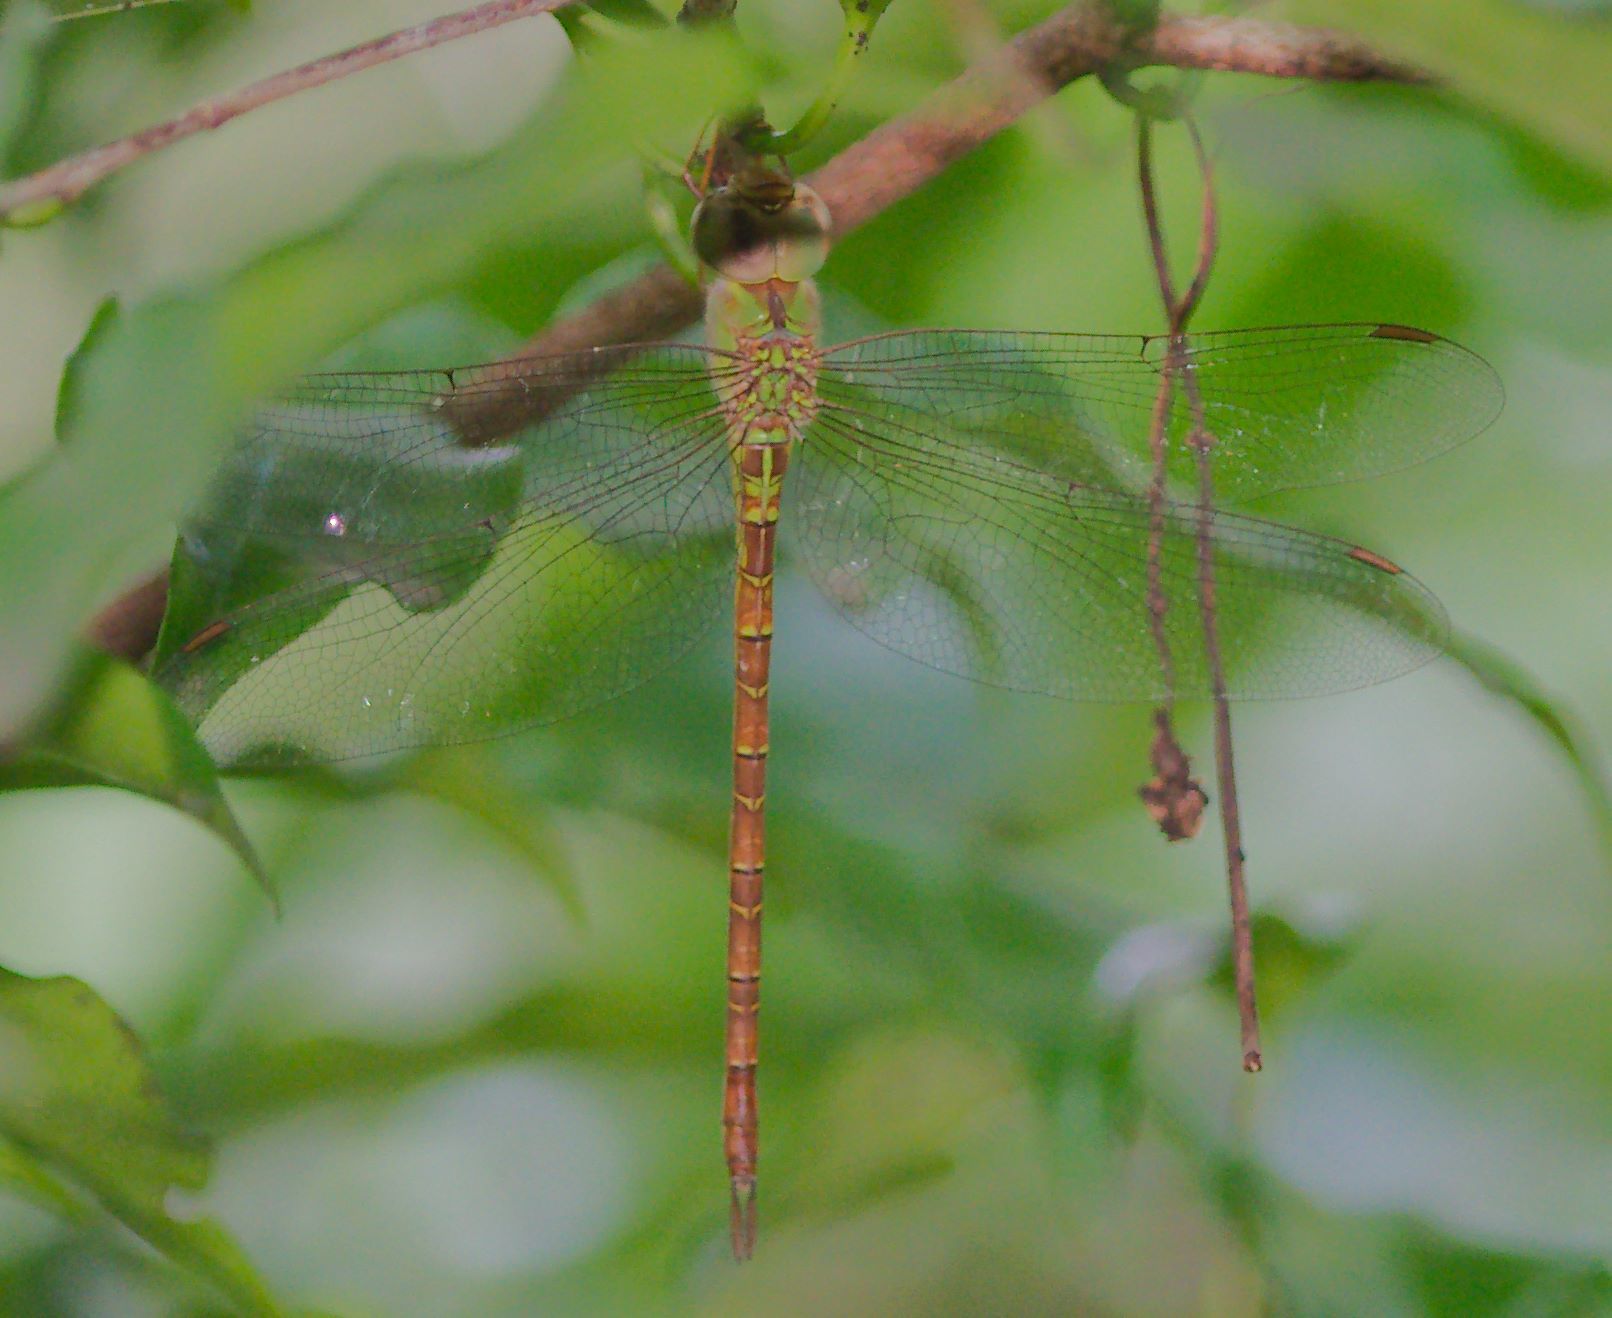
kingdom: Animalia
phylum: Arthropoda
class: Insecta
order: Odonata
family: Aeshnidae
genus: Triacanthagyna
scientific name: Triacanthagyna septima
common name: Pale-green darner
